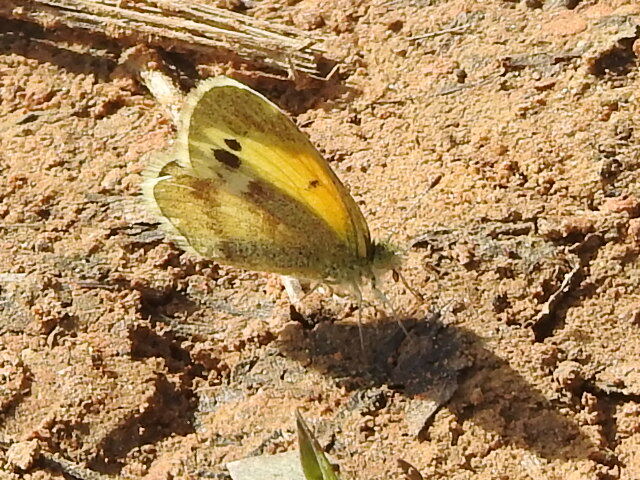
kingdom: Animalia
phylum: Arthropoda
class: Insecta
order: Lepidoptera
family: Pieridae
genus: Nathalis
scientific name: Nathalis iole
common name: Dainty sulphur
